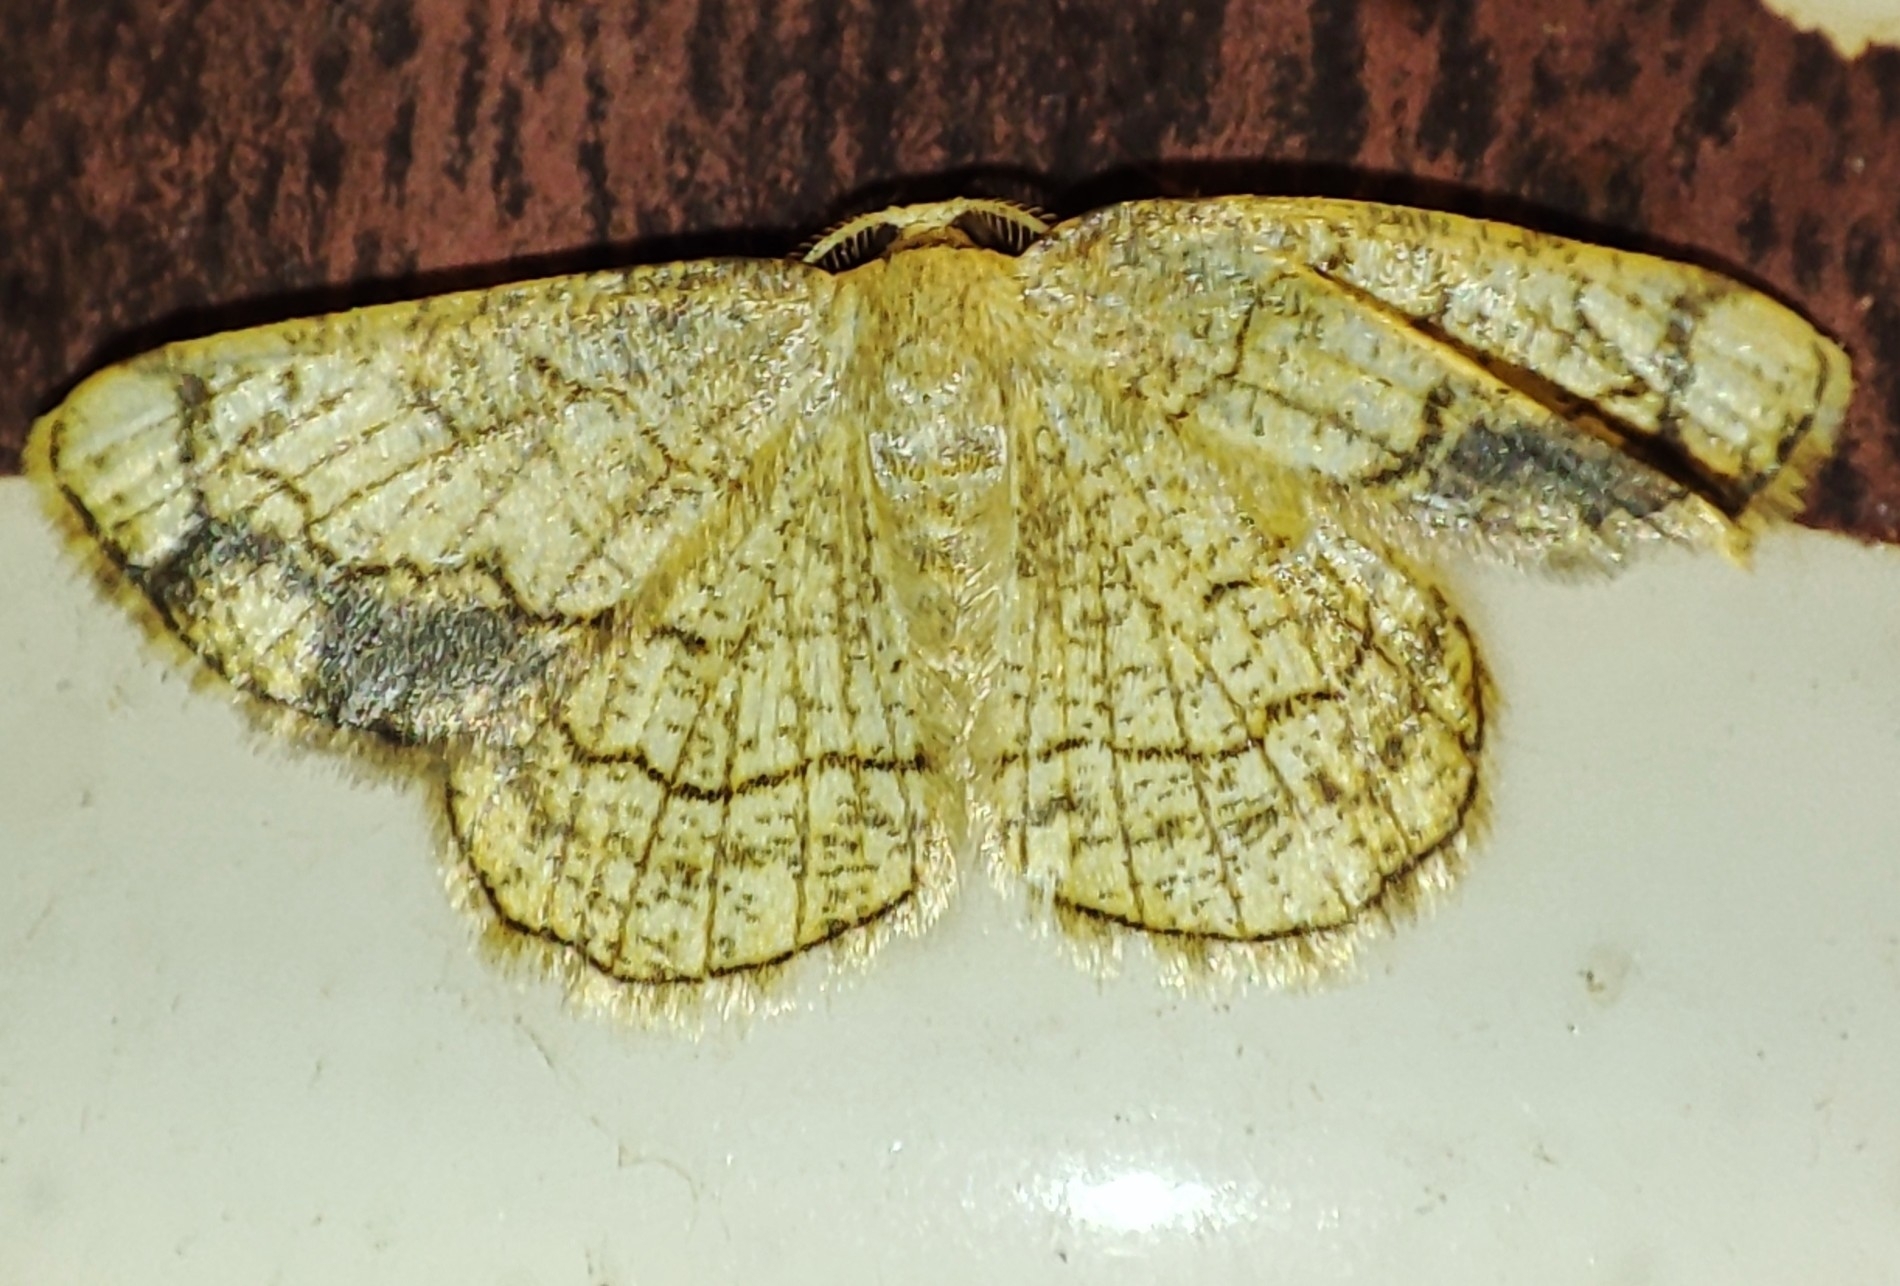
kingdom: Animalia
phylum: Arthropoda
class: Insecta
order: Lepidoptera
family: Geometridae
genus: Stegania
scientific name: Stegania dilectaria
